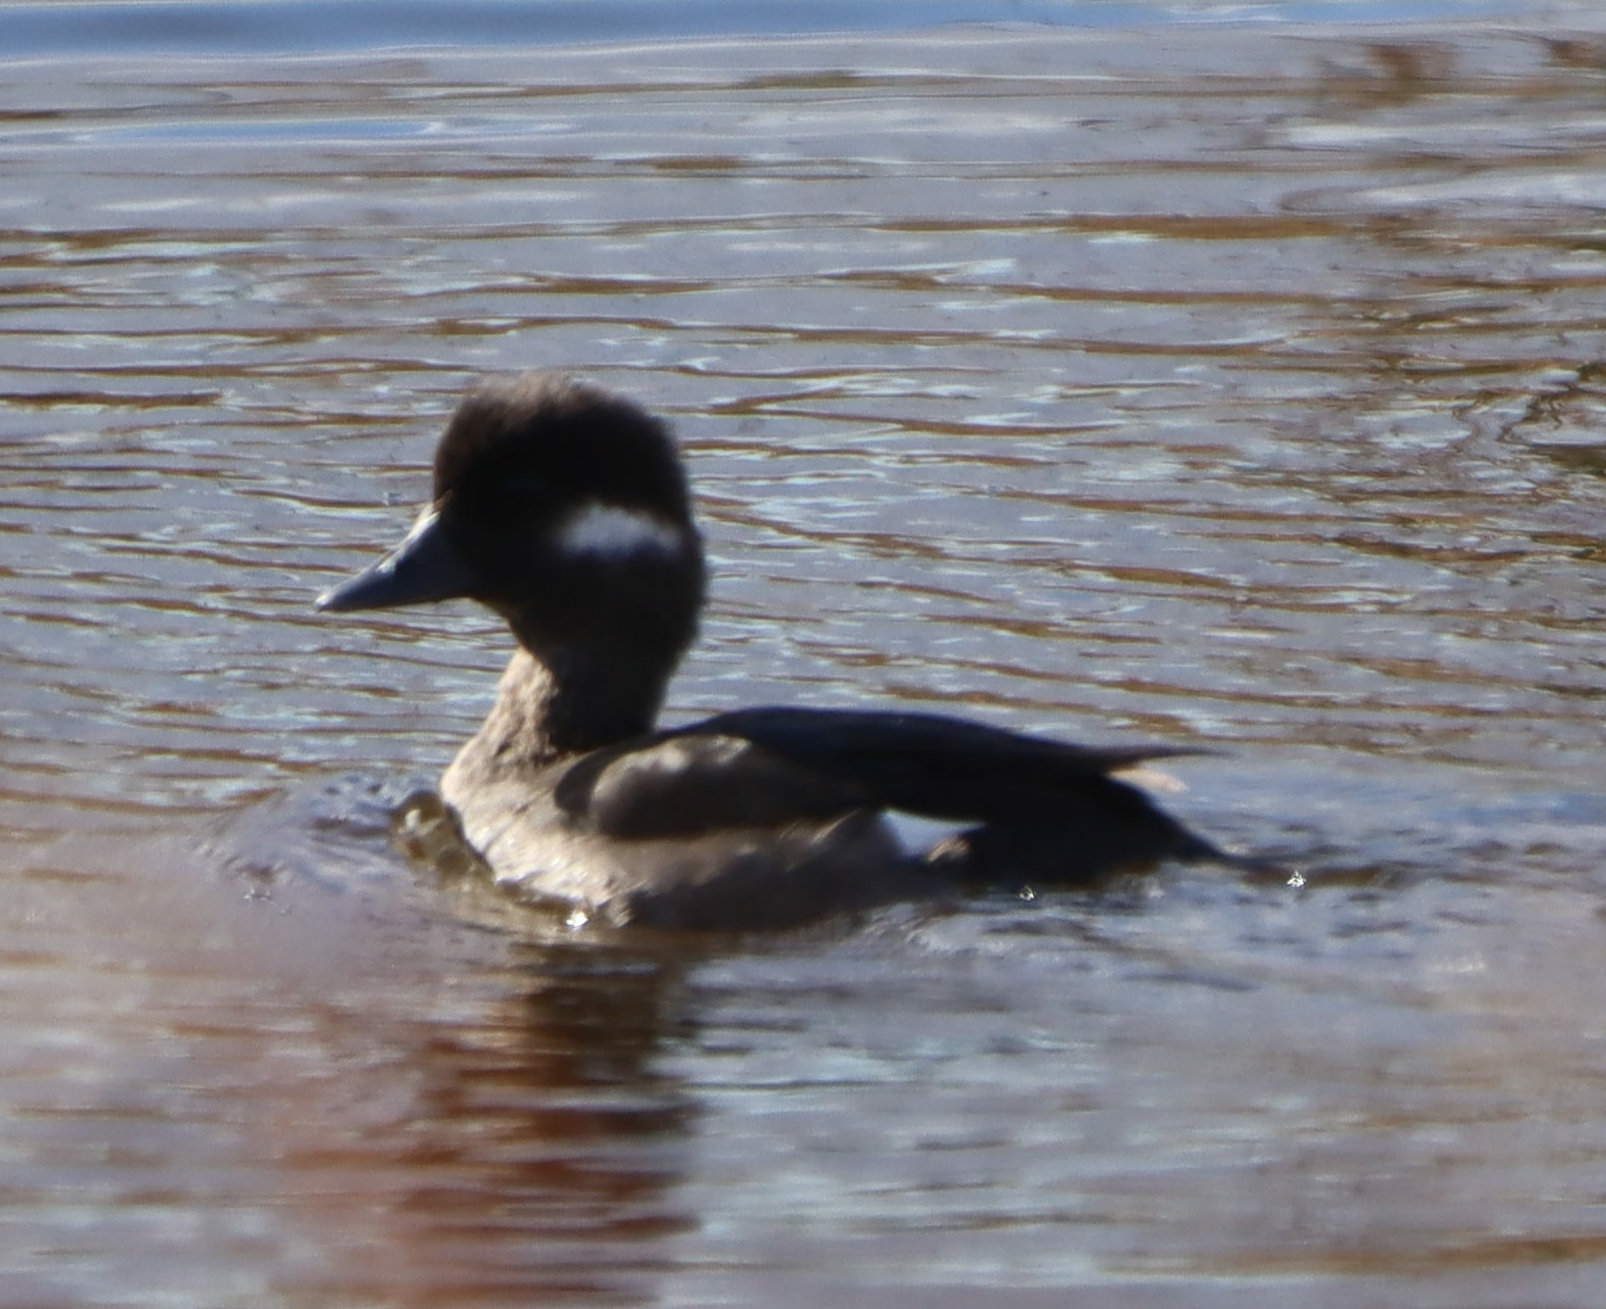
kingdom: Animalia
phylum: Chordata
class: Aves
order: Anseriformes
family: Anatidae
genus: Bucephala
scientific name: Bucephala albeola
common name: Bufflehead
